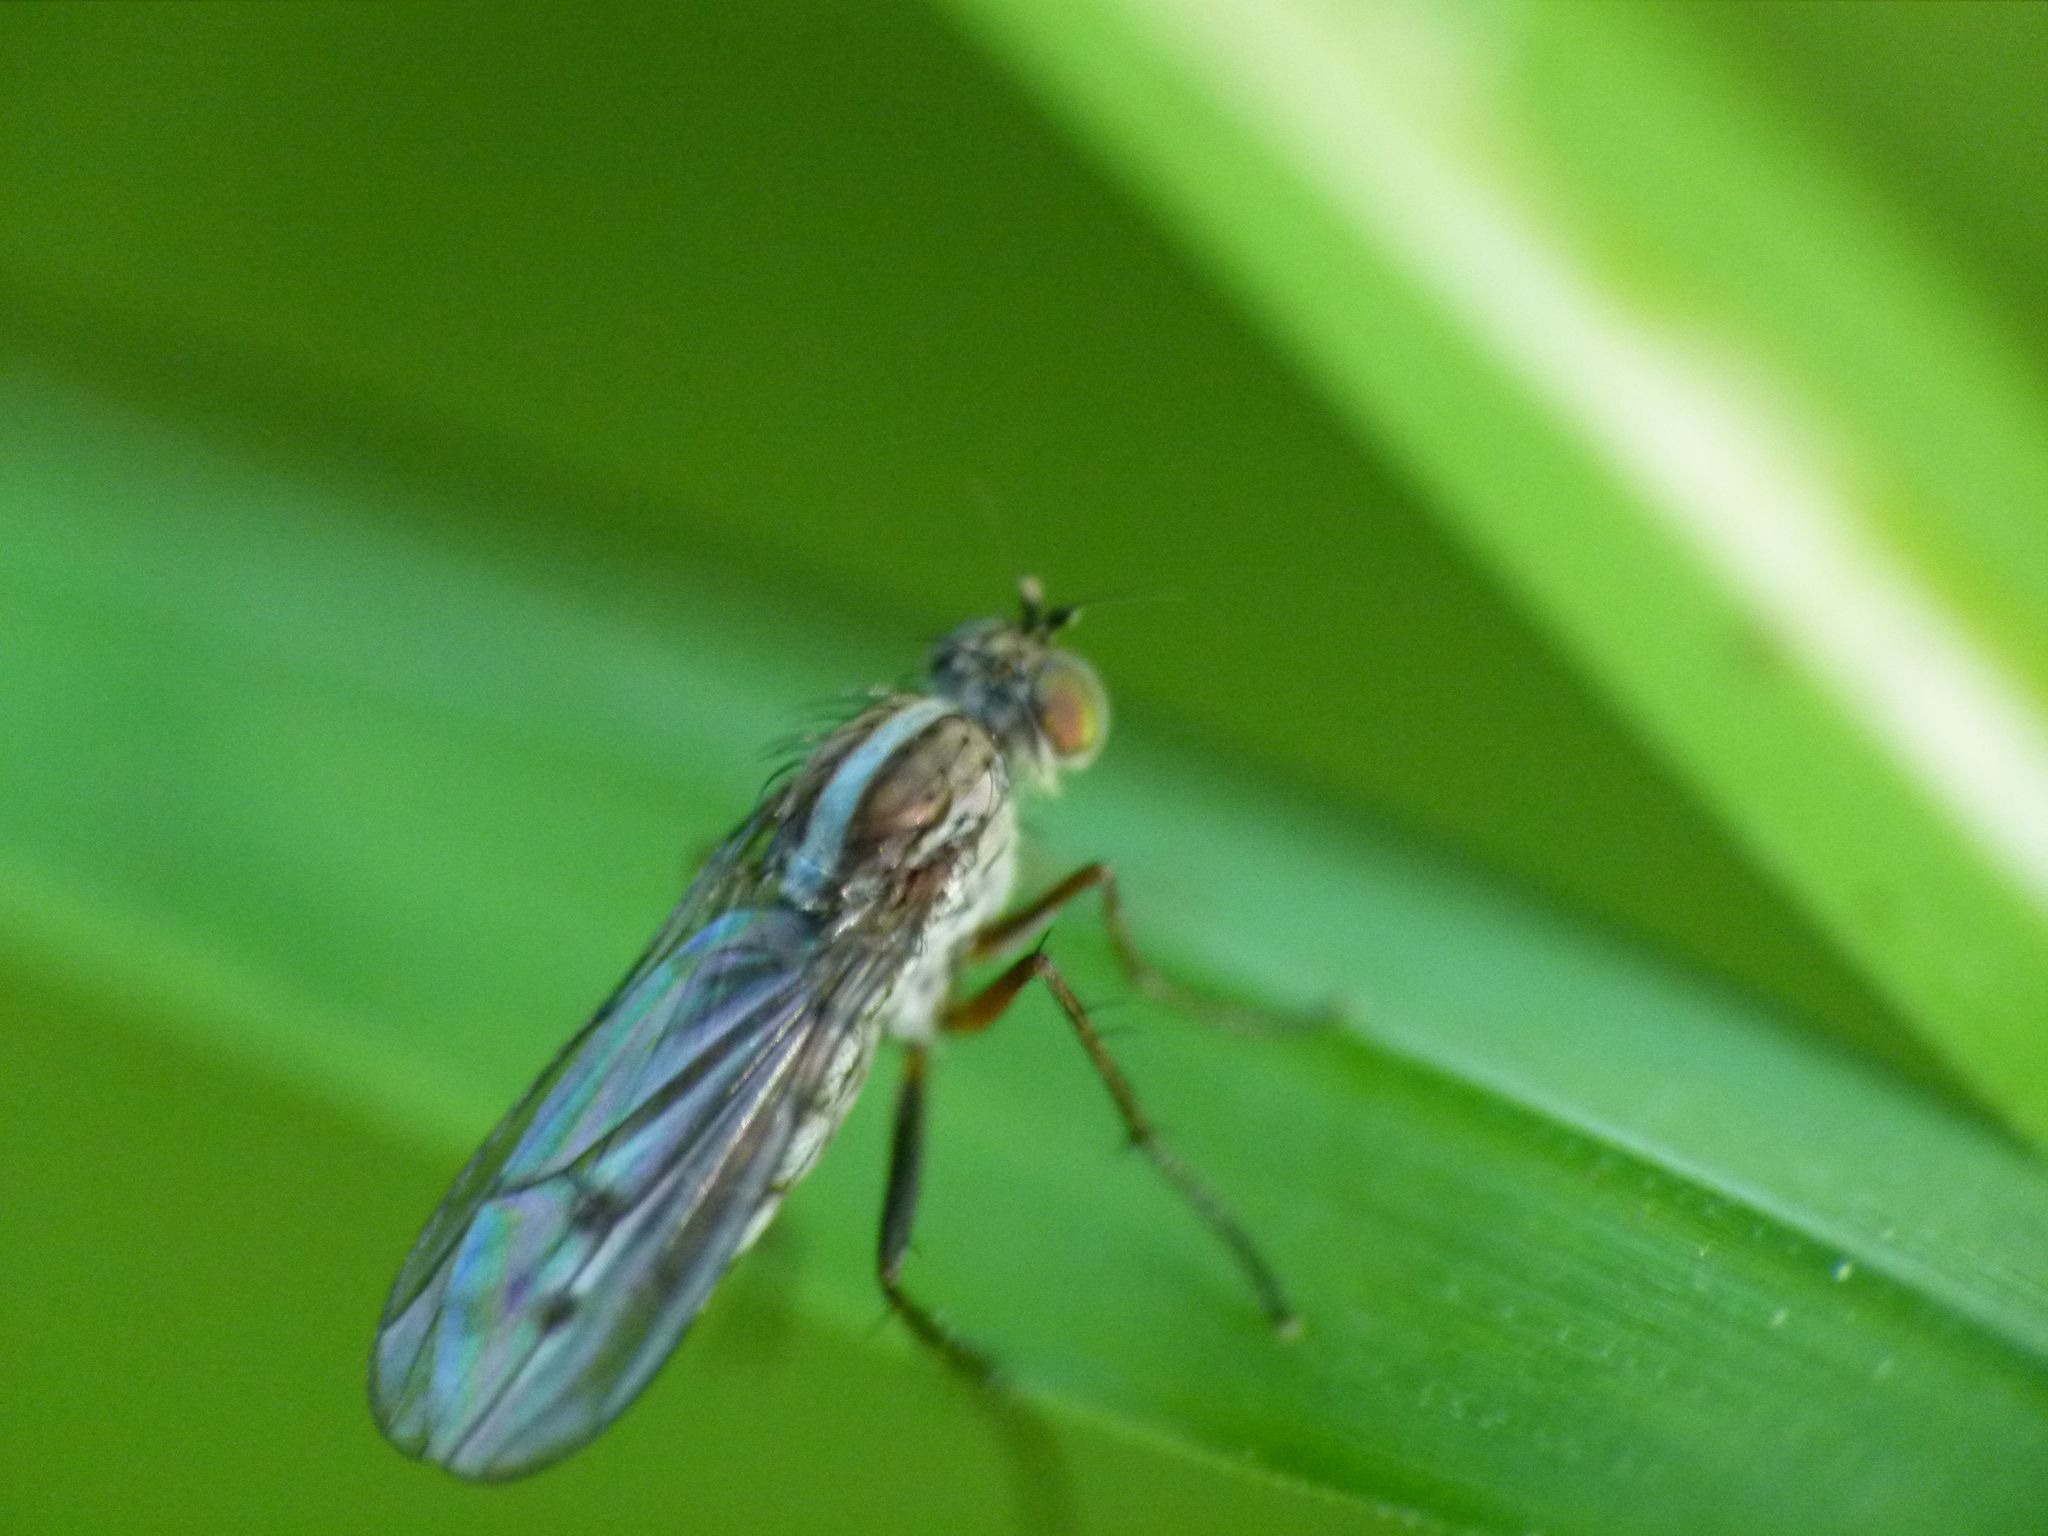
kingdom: Animalia
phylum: Arthropoda
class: Insecta
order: Diptera
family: Dolichopodidae
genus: Tetrachaetus
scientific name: Tetrachaetus bipunctatus
